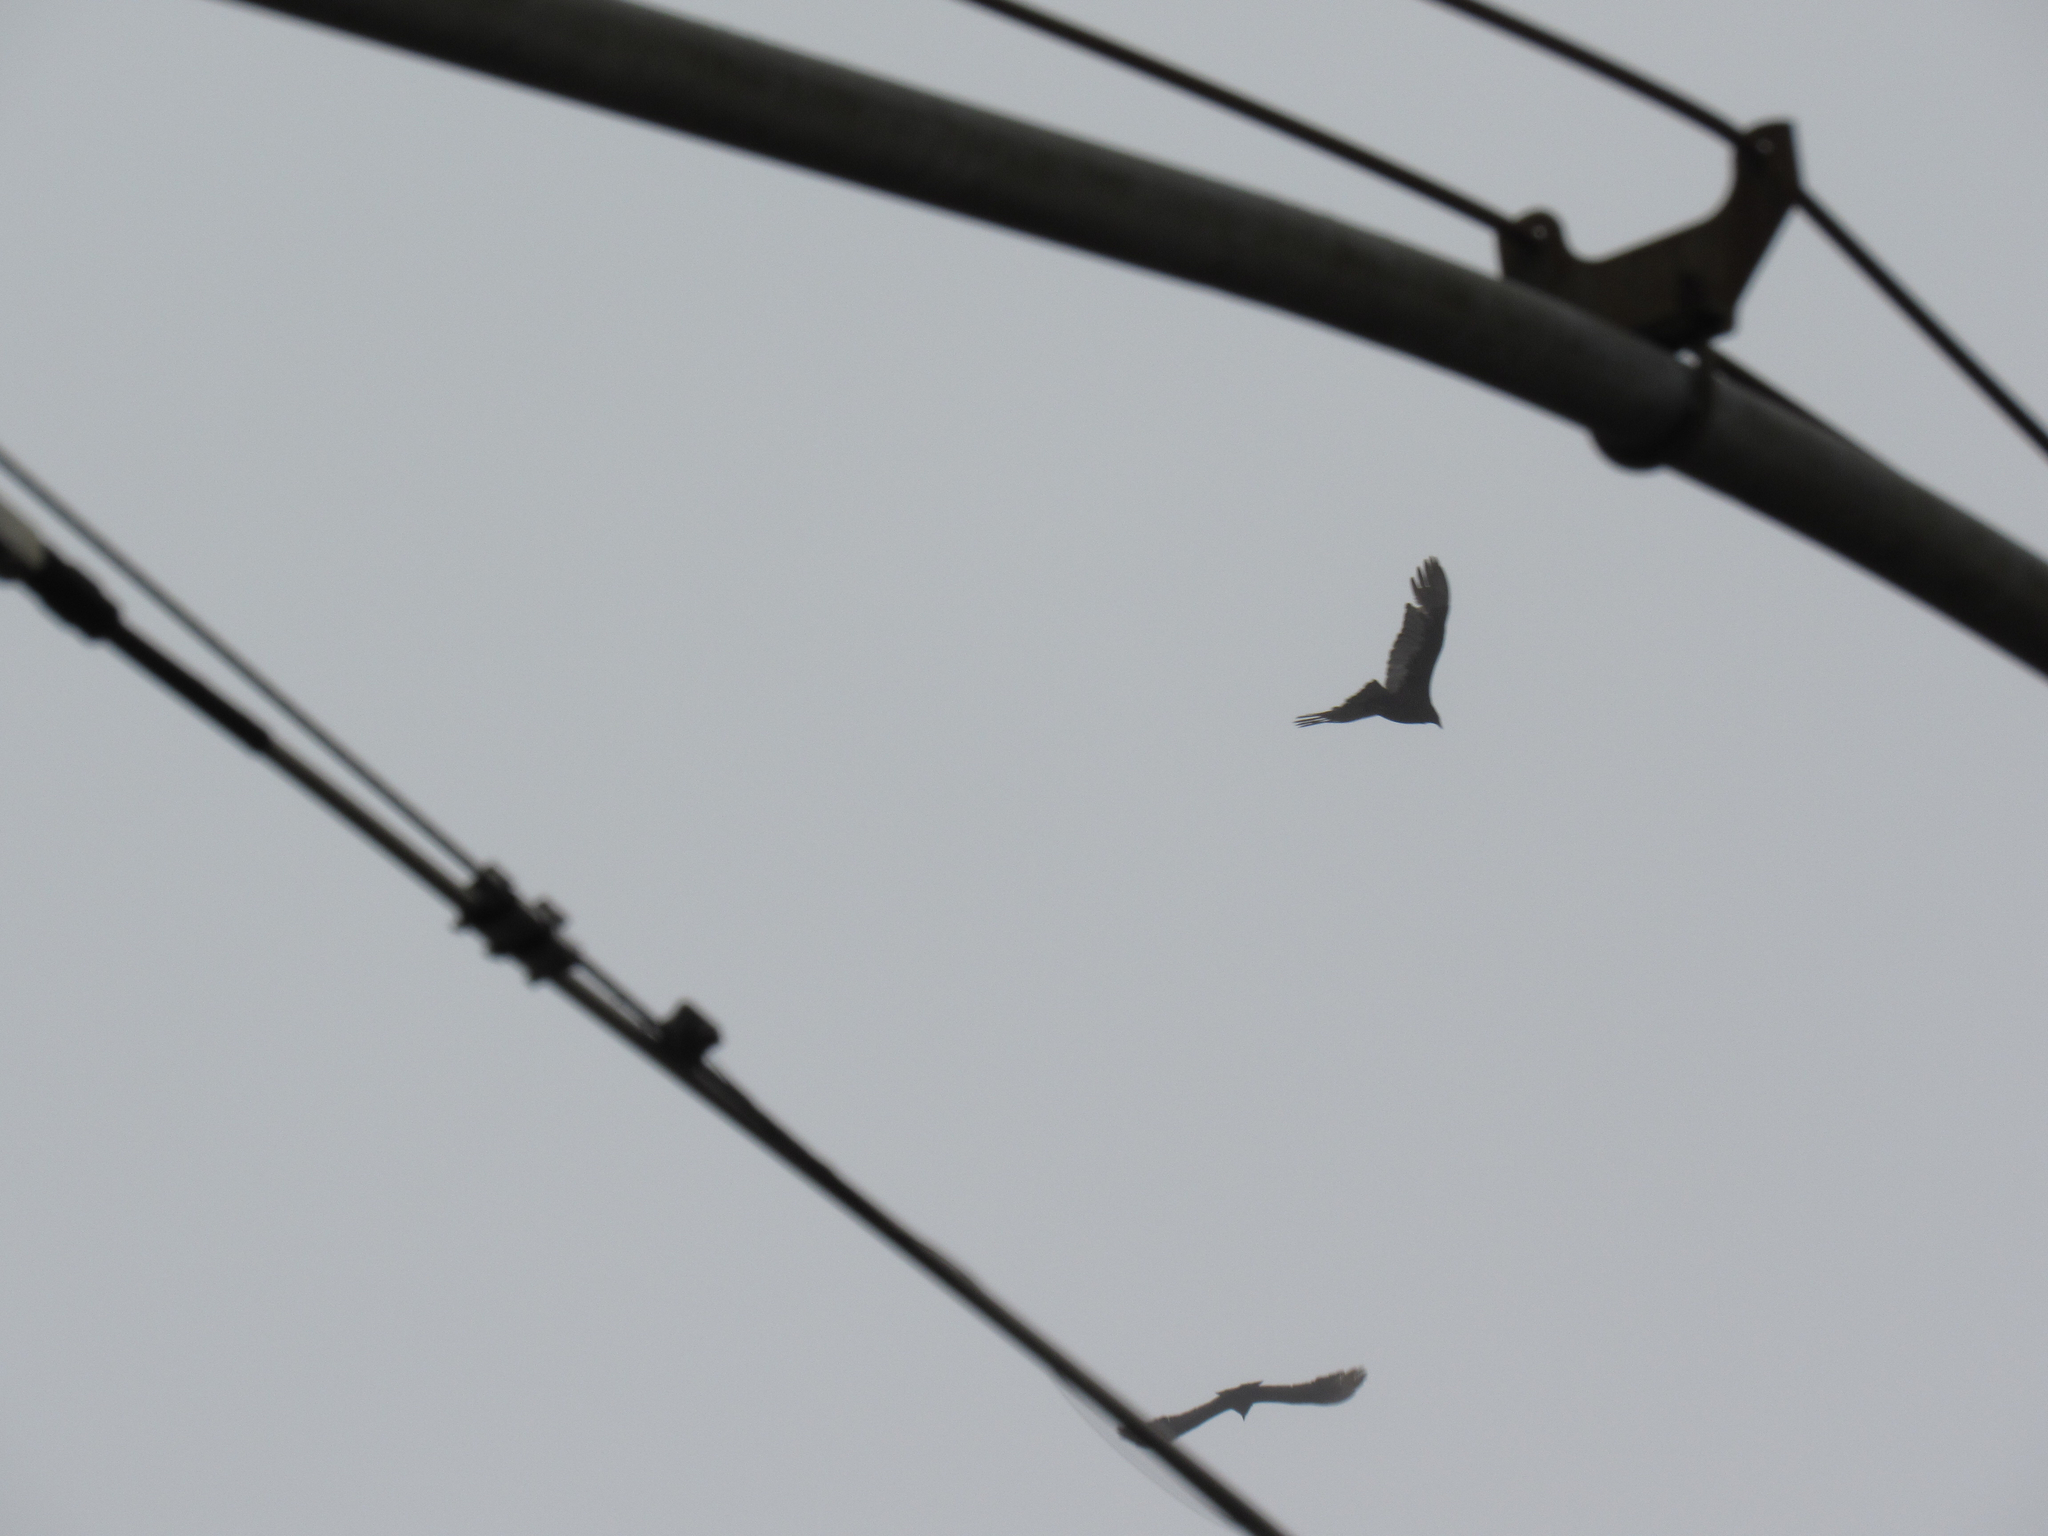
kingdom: Animalia
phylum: Chordata
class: Aves
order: Accipitriformes
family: Cathartidae
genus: Cathartes
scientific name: Cathartes aura
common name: Turkey vulture
